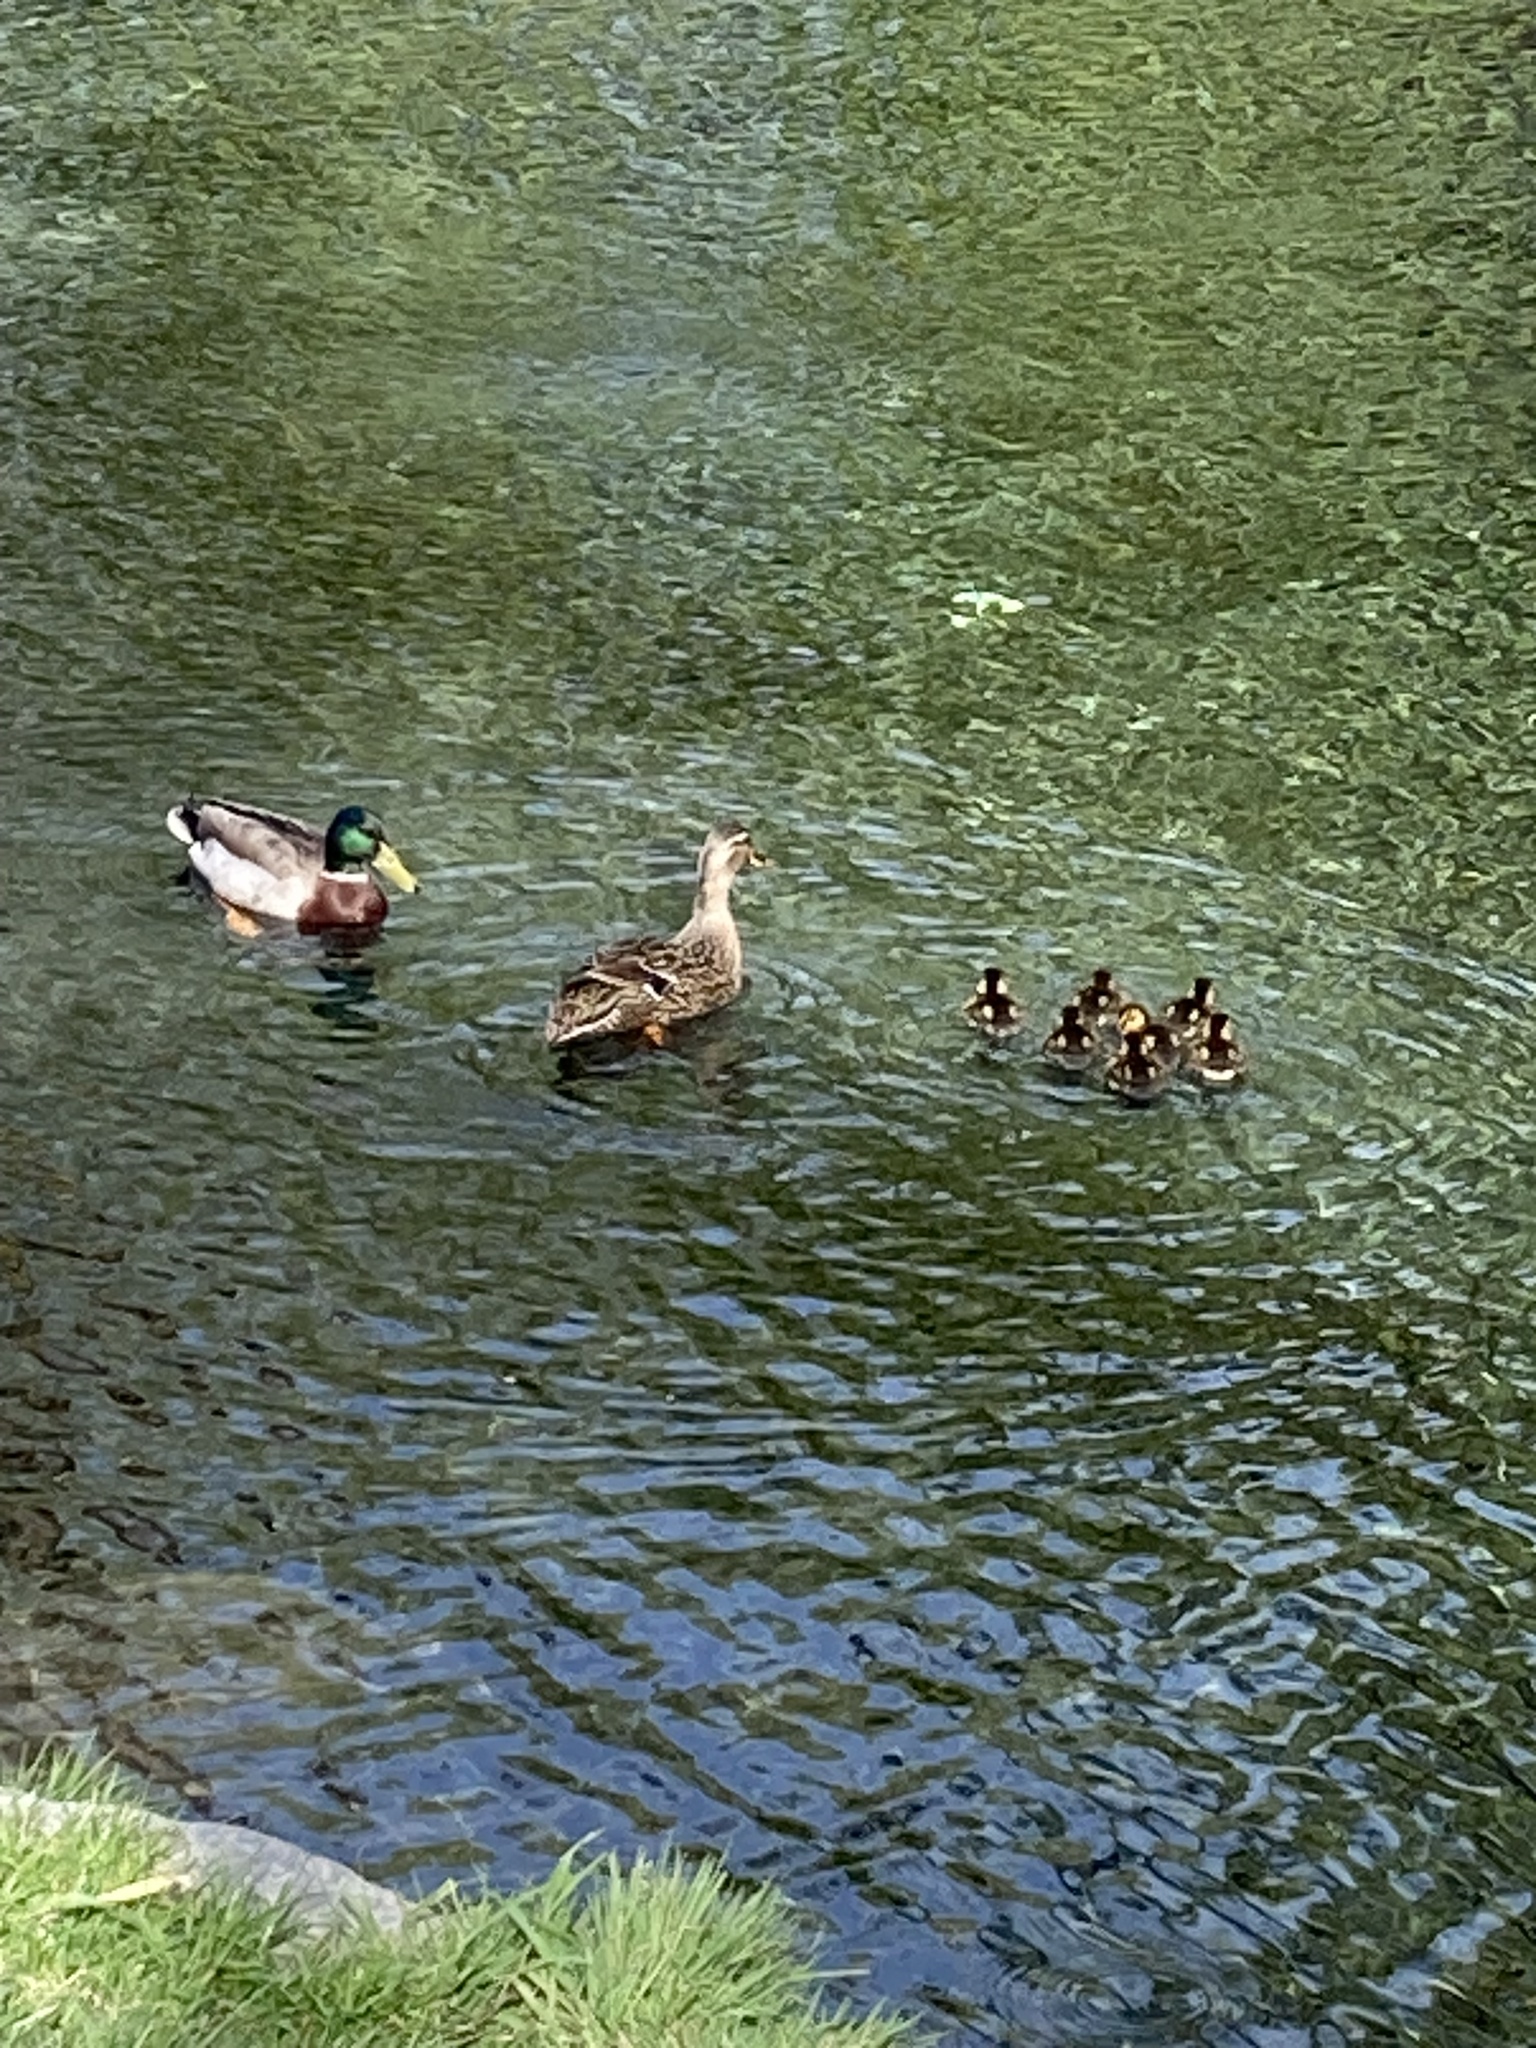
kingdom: Animalia
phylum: Chordata
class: Aves
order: Anseriformes
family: Anatidae
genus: Anas
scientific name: Anas platyrhynchos
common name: Mallard
